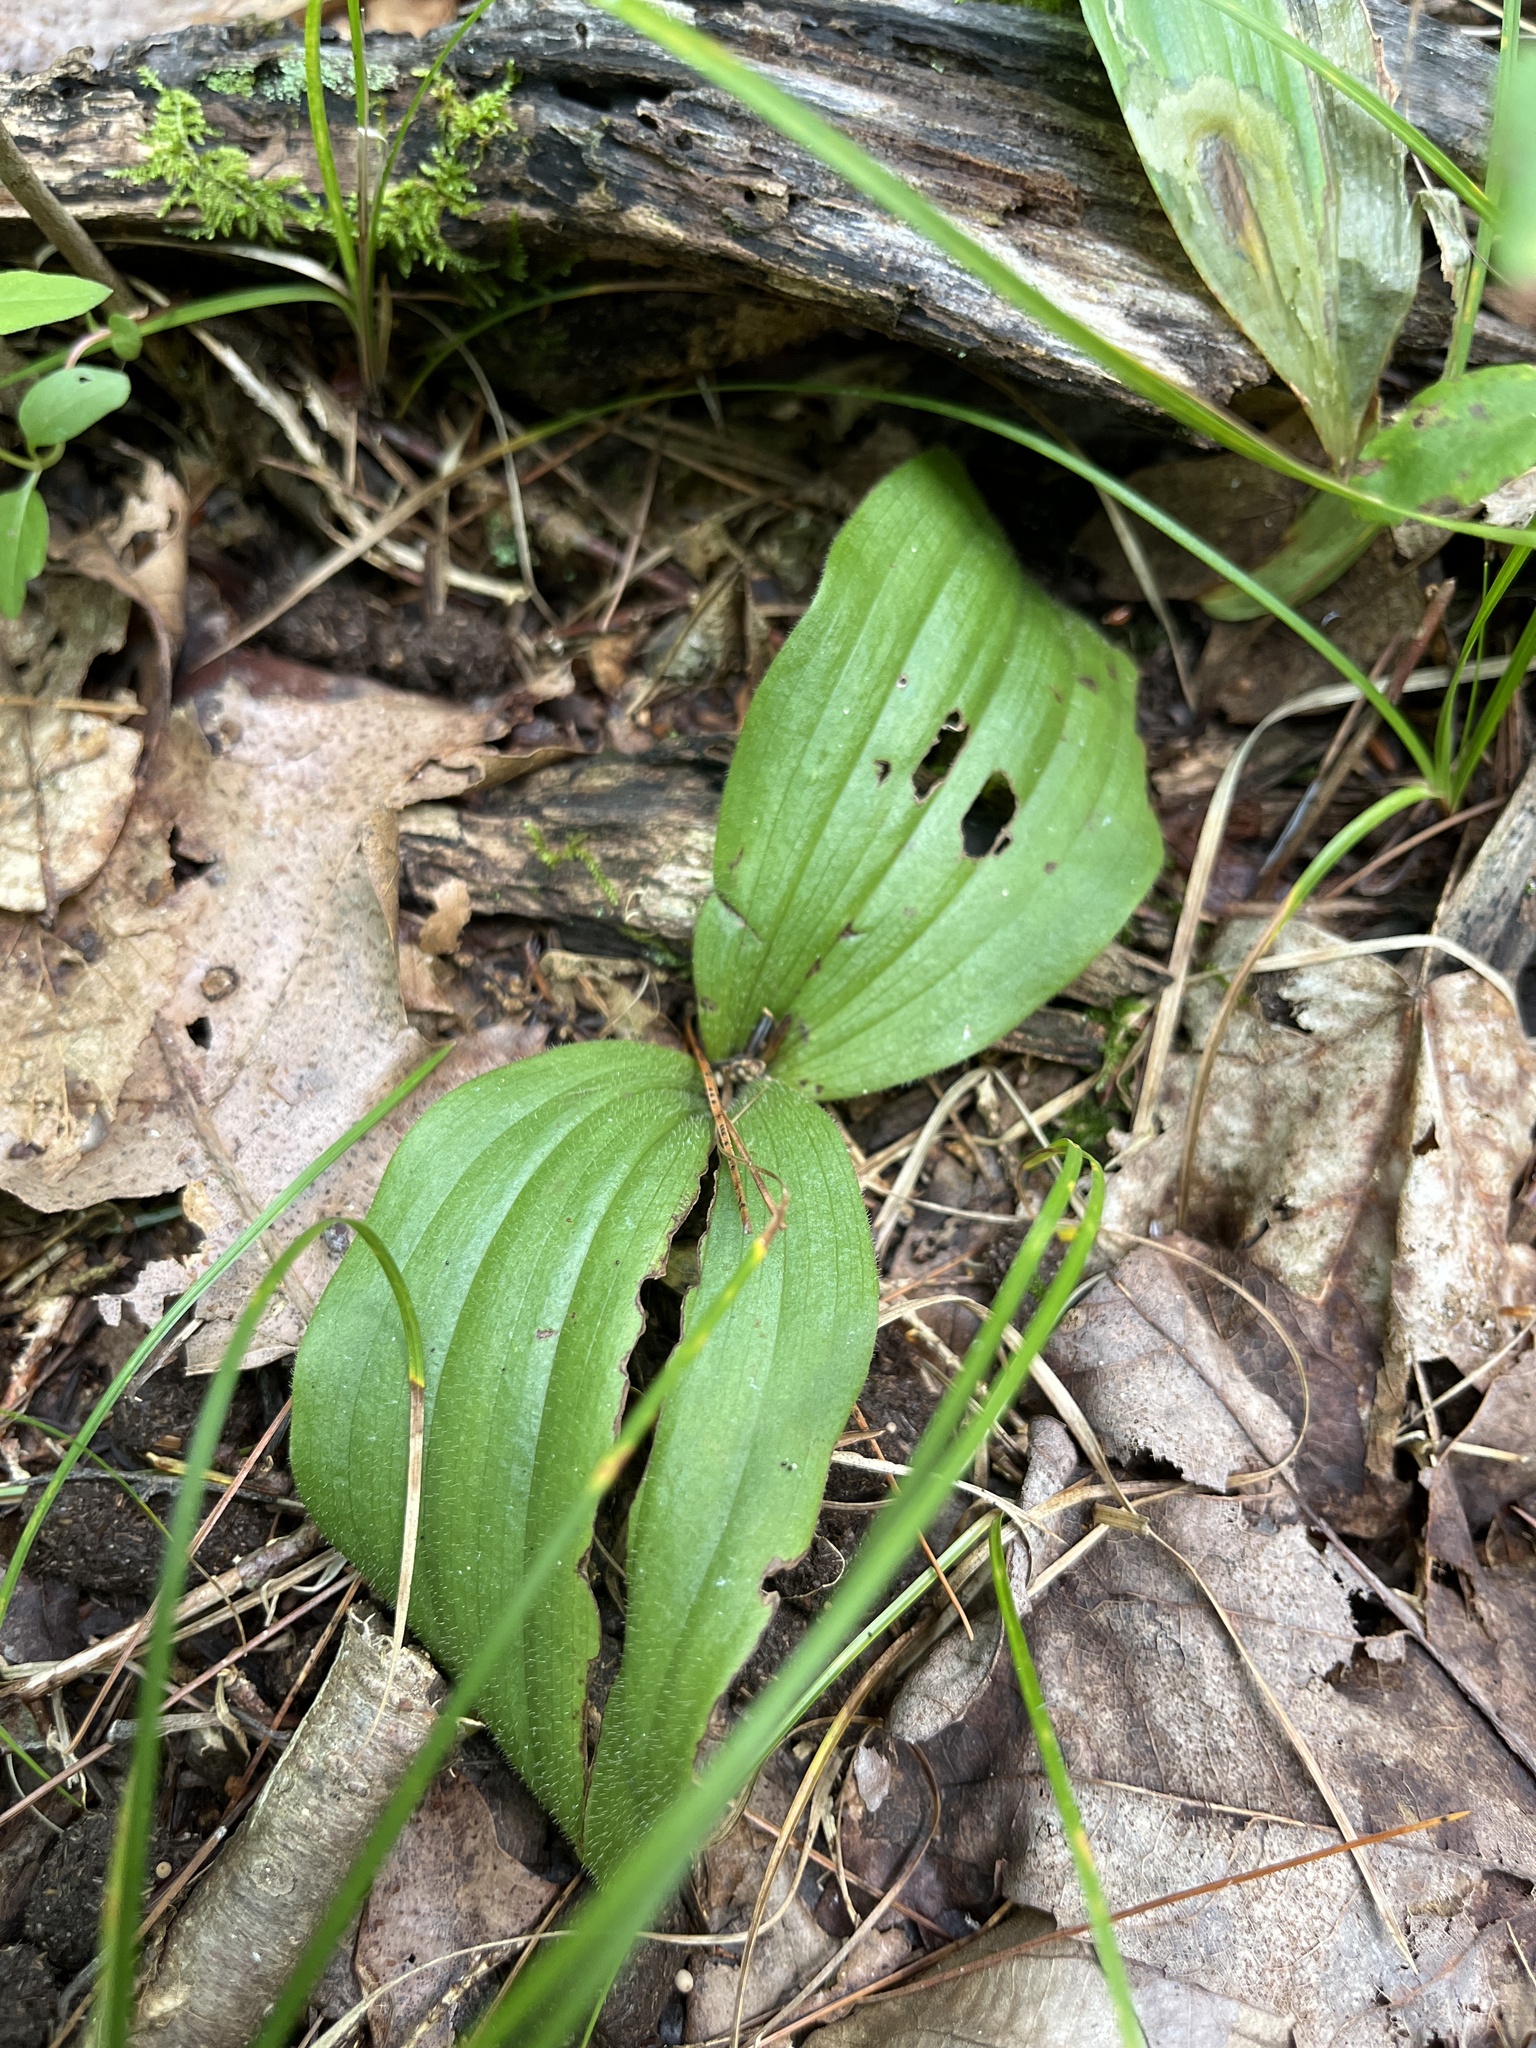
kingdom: Plantae
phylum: Tracheophyta
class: Liliopsida
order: Asparagales
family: Orchidaceae
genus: Cypripedium
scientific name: Cypripedium acaule
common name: Pink lady's-slipper
